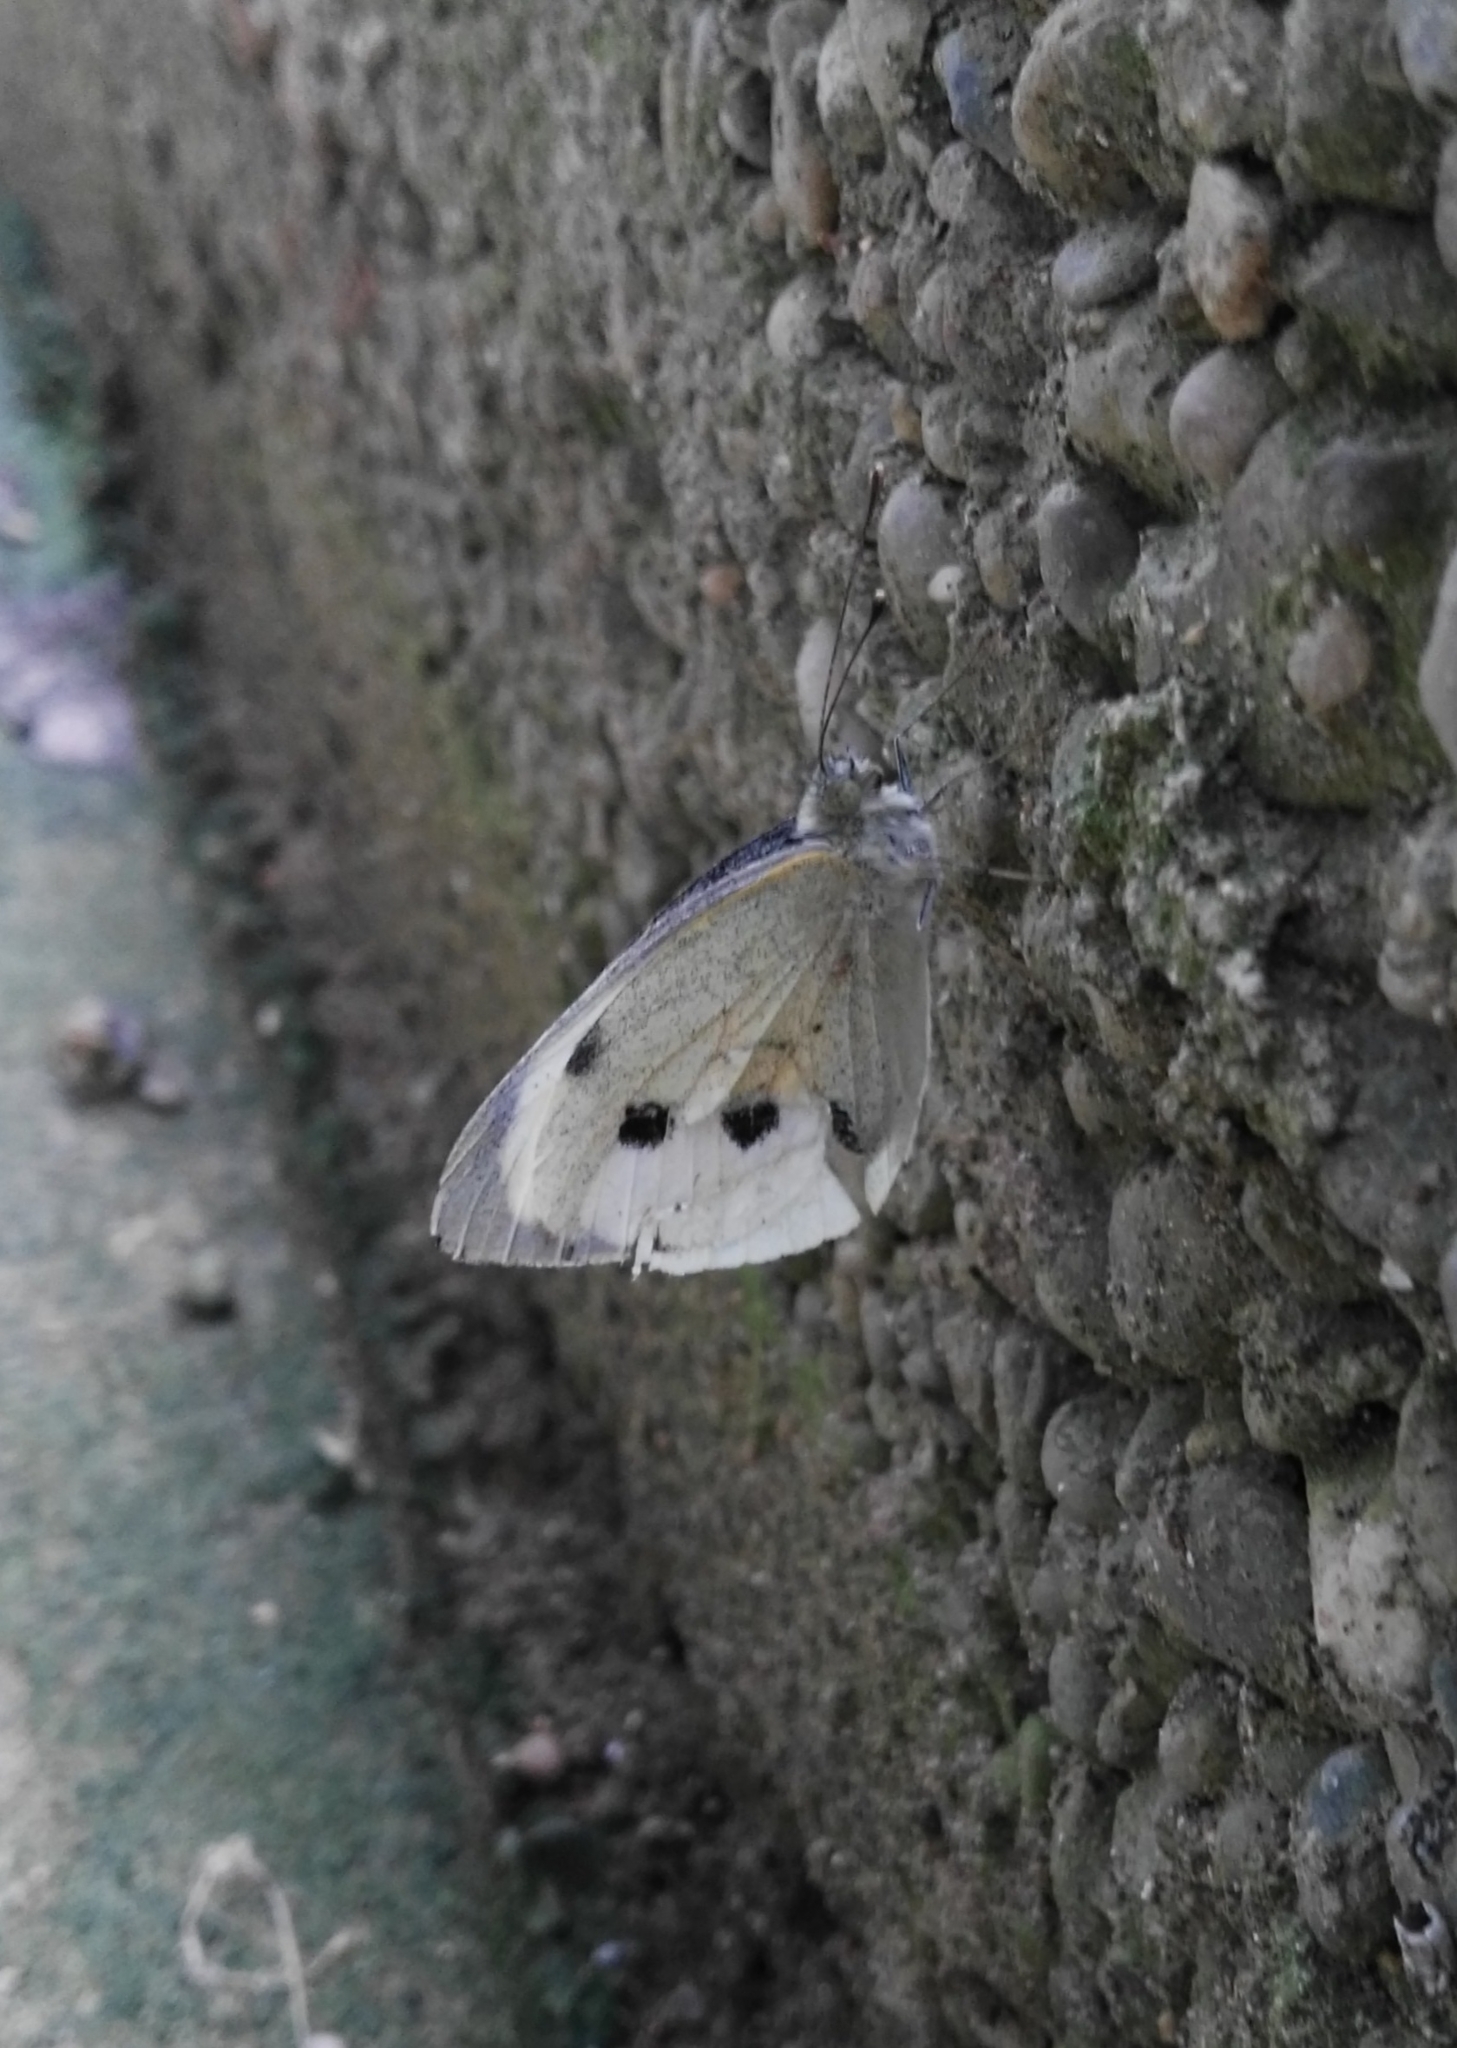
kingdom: Animalia
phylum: Arthropoda
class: Insecta
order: Lepidoptera
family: Pieridae
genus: Pieris
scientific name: Pieris brassicae
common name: Large white
